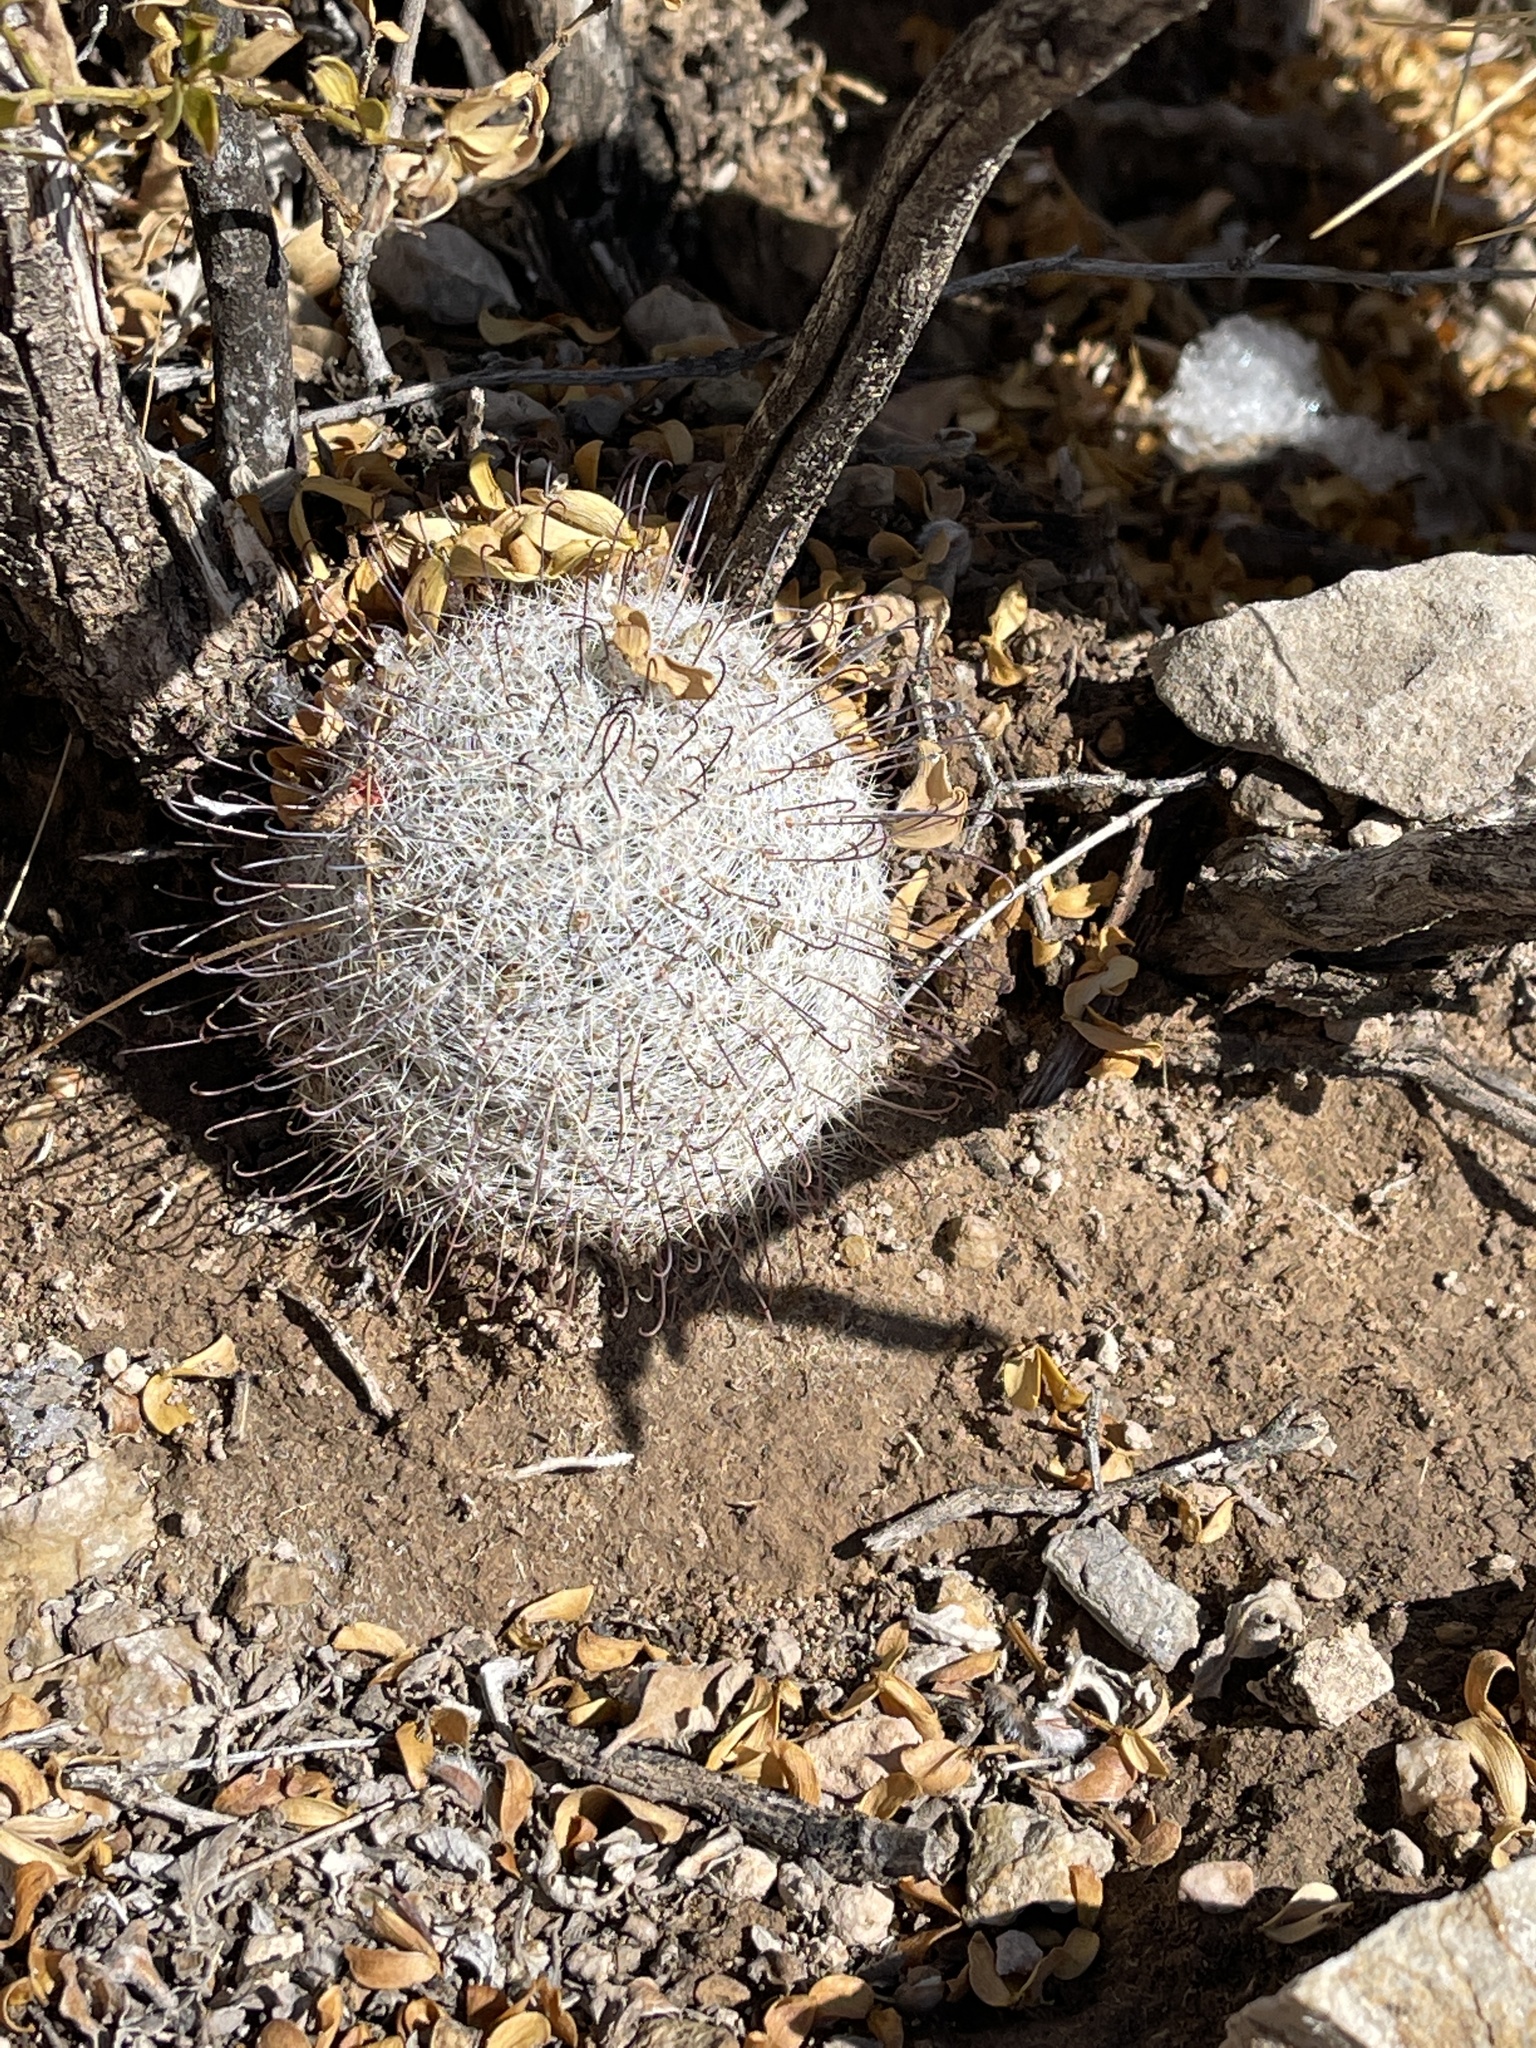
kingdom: Plantae
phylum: Tracheophyta
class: Magnoliopsida
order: Caryophyllales
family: Cactaceae
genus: Cochemiea
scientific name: Cochemiea grahamii
